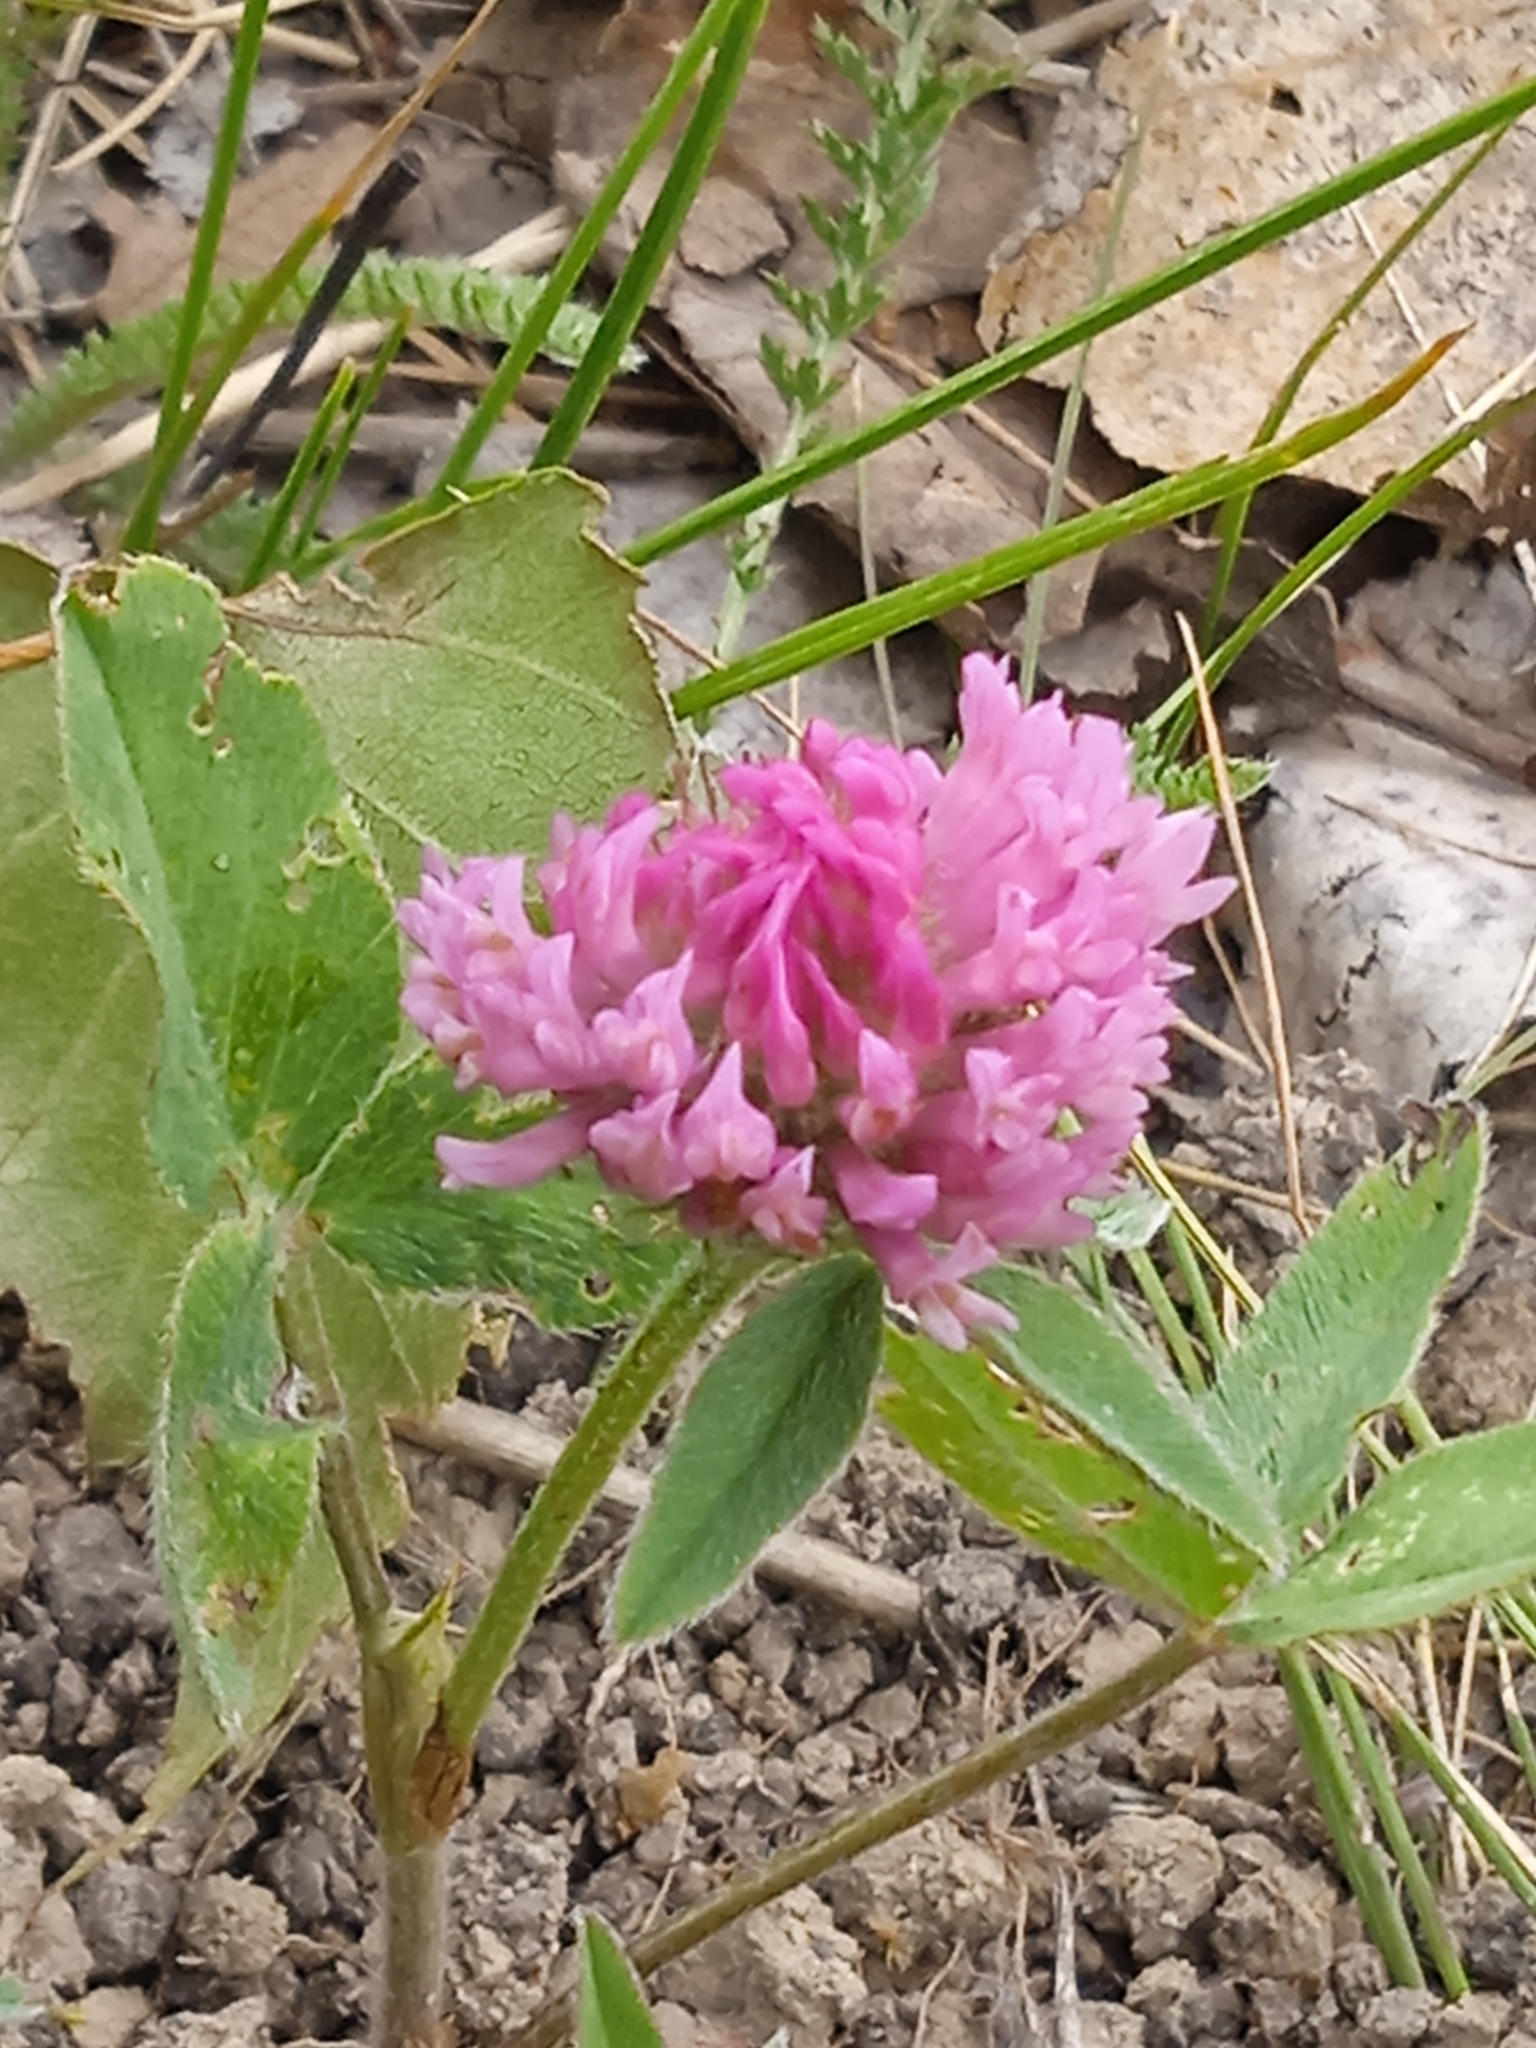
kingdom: Plantae
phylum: Tracheophyta
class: Magnoliopsida
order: Fabales
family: Fabaceae
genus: Trifolium
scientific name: Trifolium pratense
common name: Red clover
